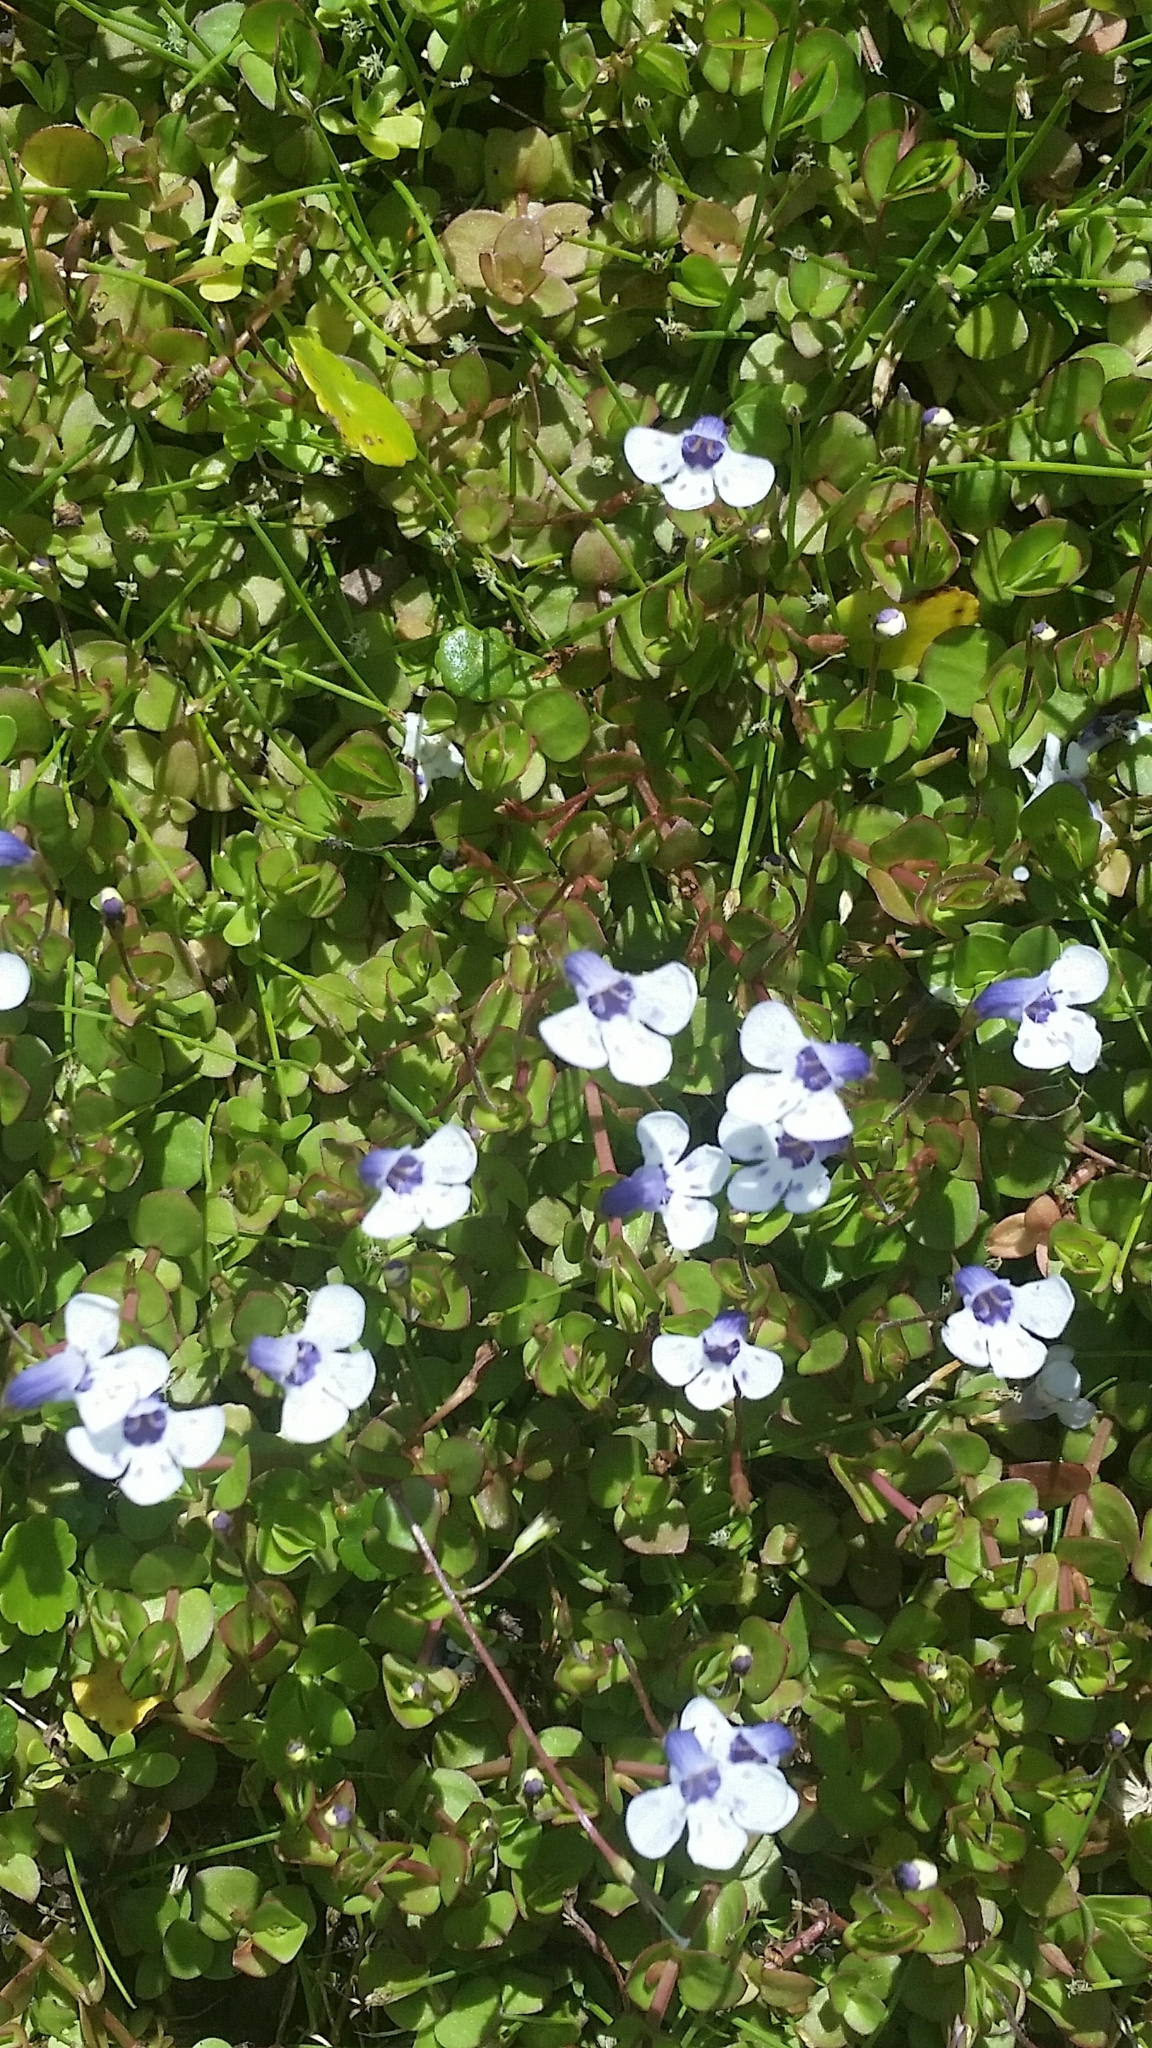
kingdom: Plantae
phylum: Tracheophyta
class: Magnoliopsida
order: Lamiales
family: Linderniaceae
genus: Lindernia
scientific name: Lindernia grandiflora
